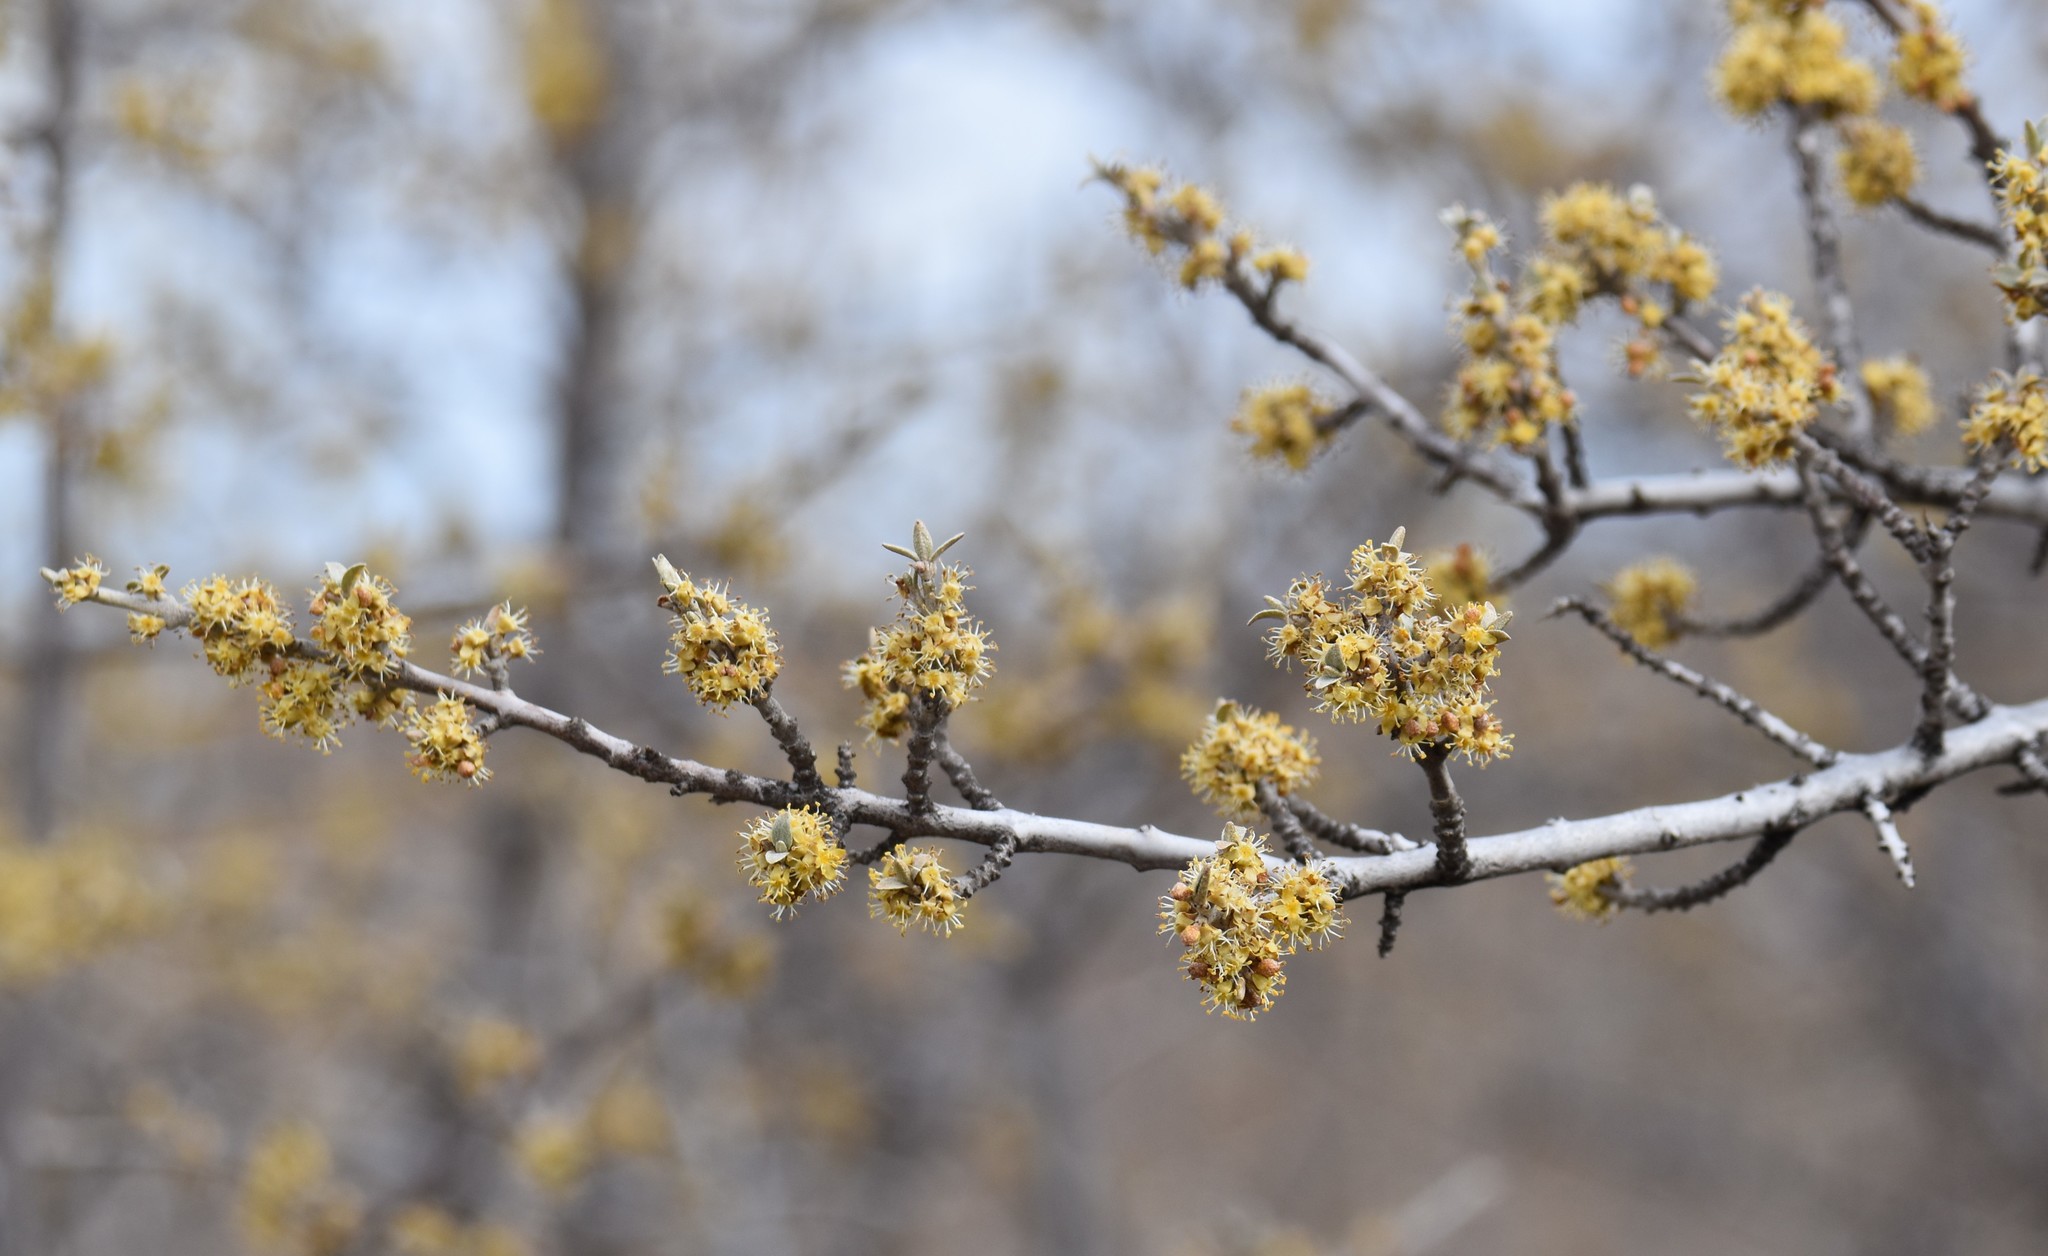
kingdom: Plantae
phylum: Tracheophyta
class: Magnoliopsida
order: Rosales
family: Elaeagnaceae
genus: Shepherdia
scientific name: Shepherdia argentea
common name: Silver buffaloberry
